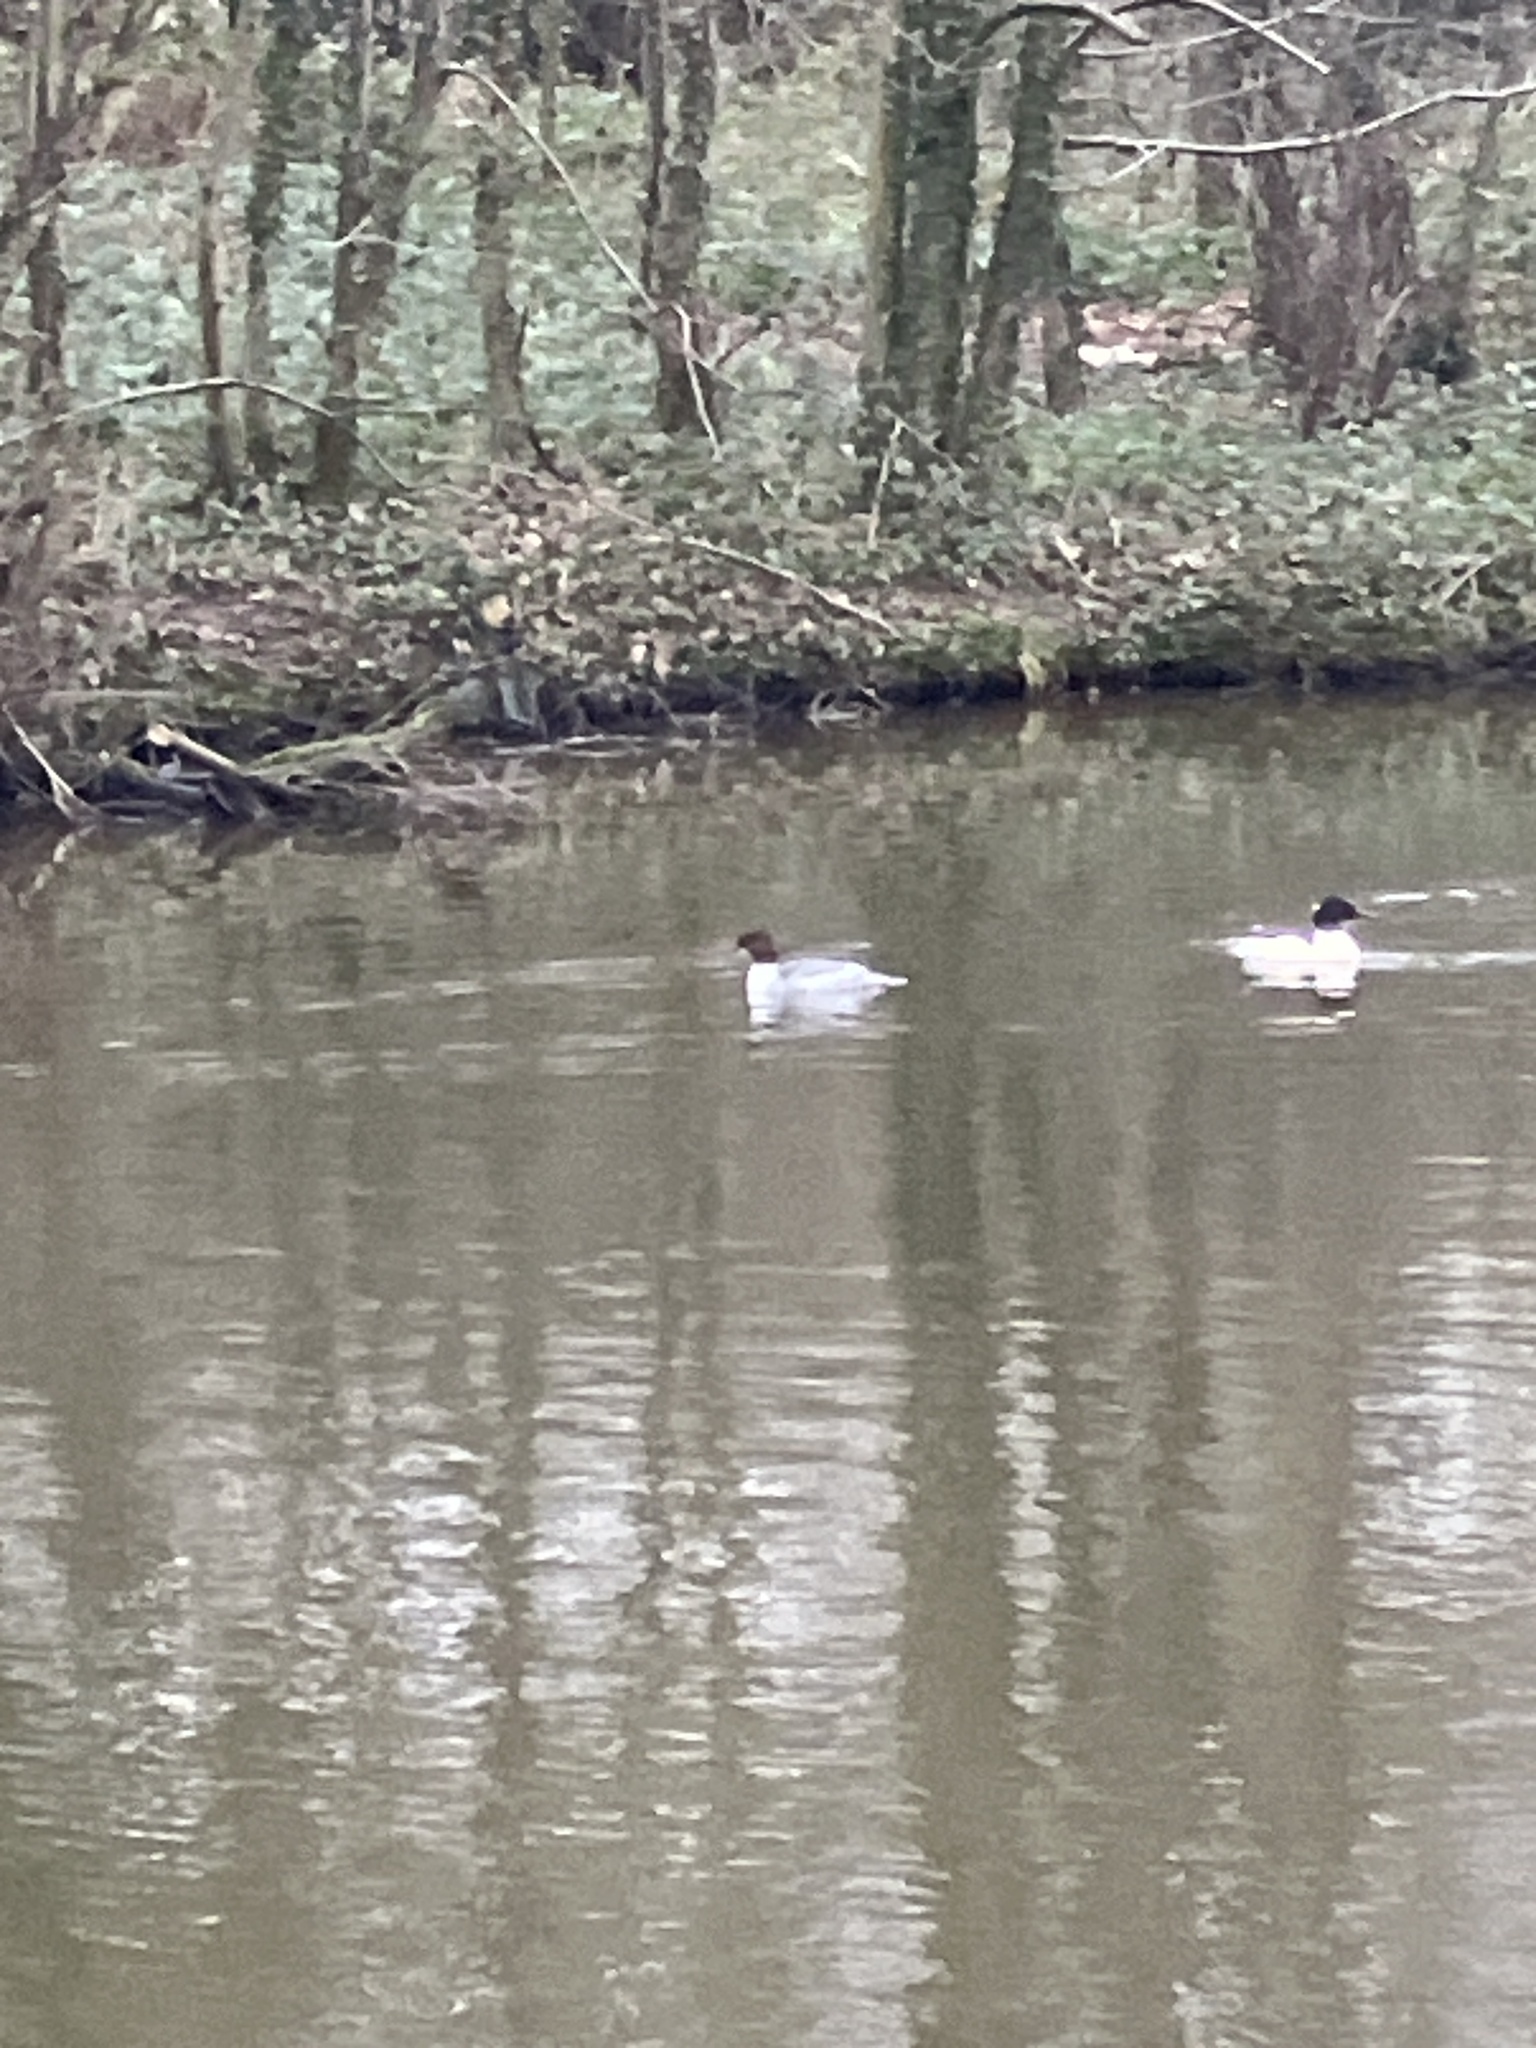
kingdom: Animalia
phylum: Chordata
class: Aves
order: Anseriformes
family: Anatidae
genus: Mergus
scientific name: Mergus merganser
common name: Common merganser
